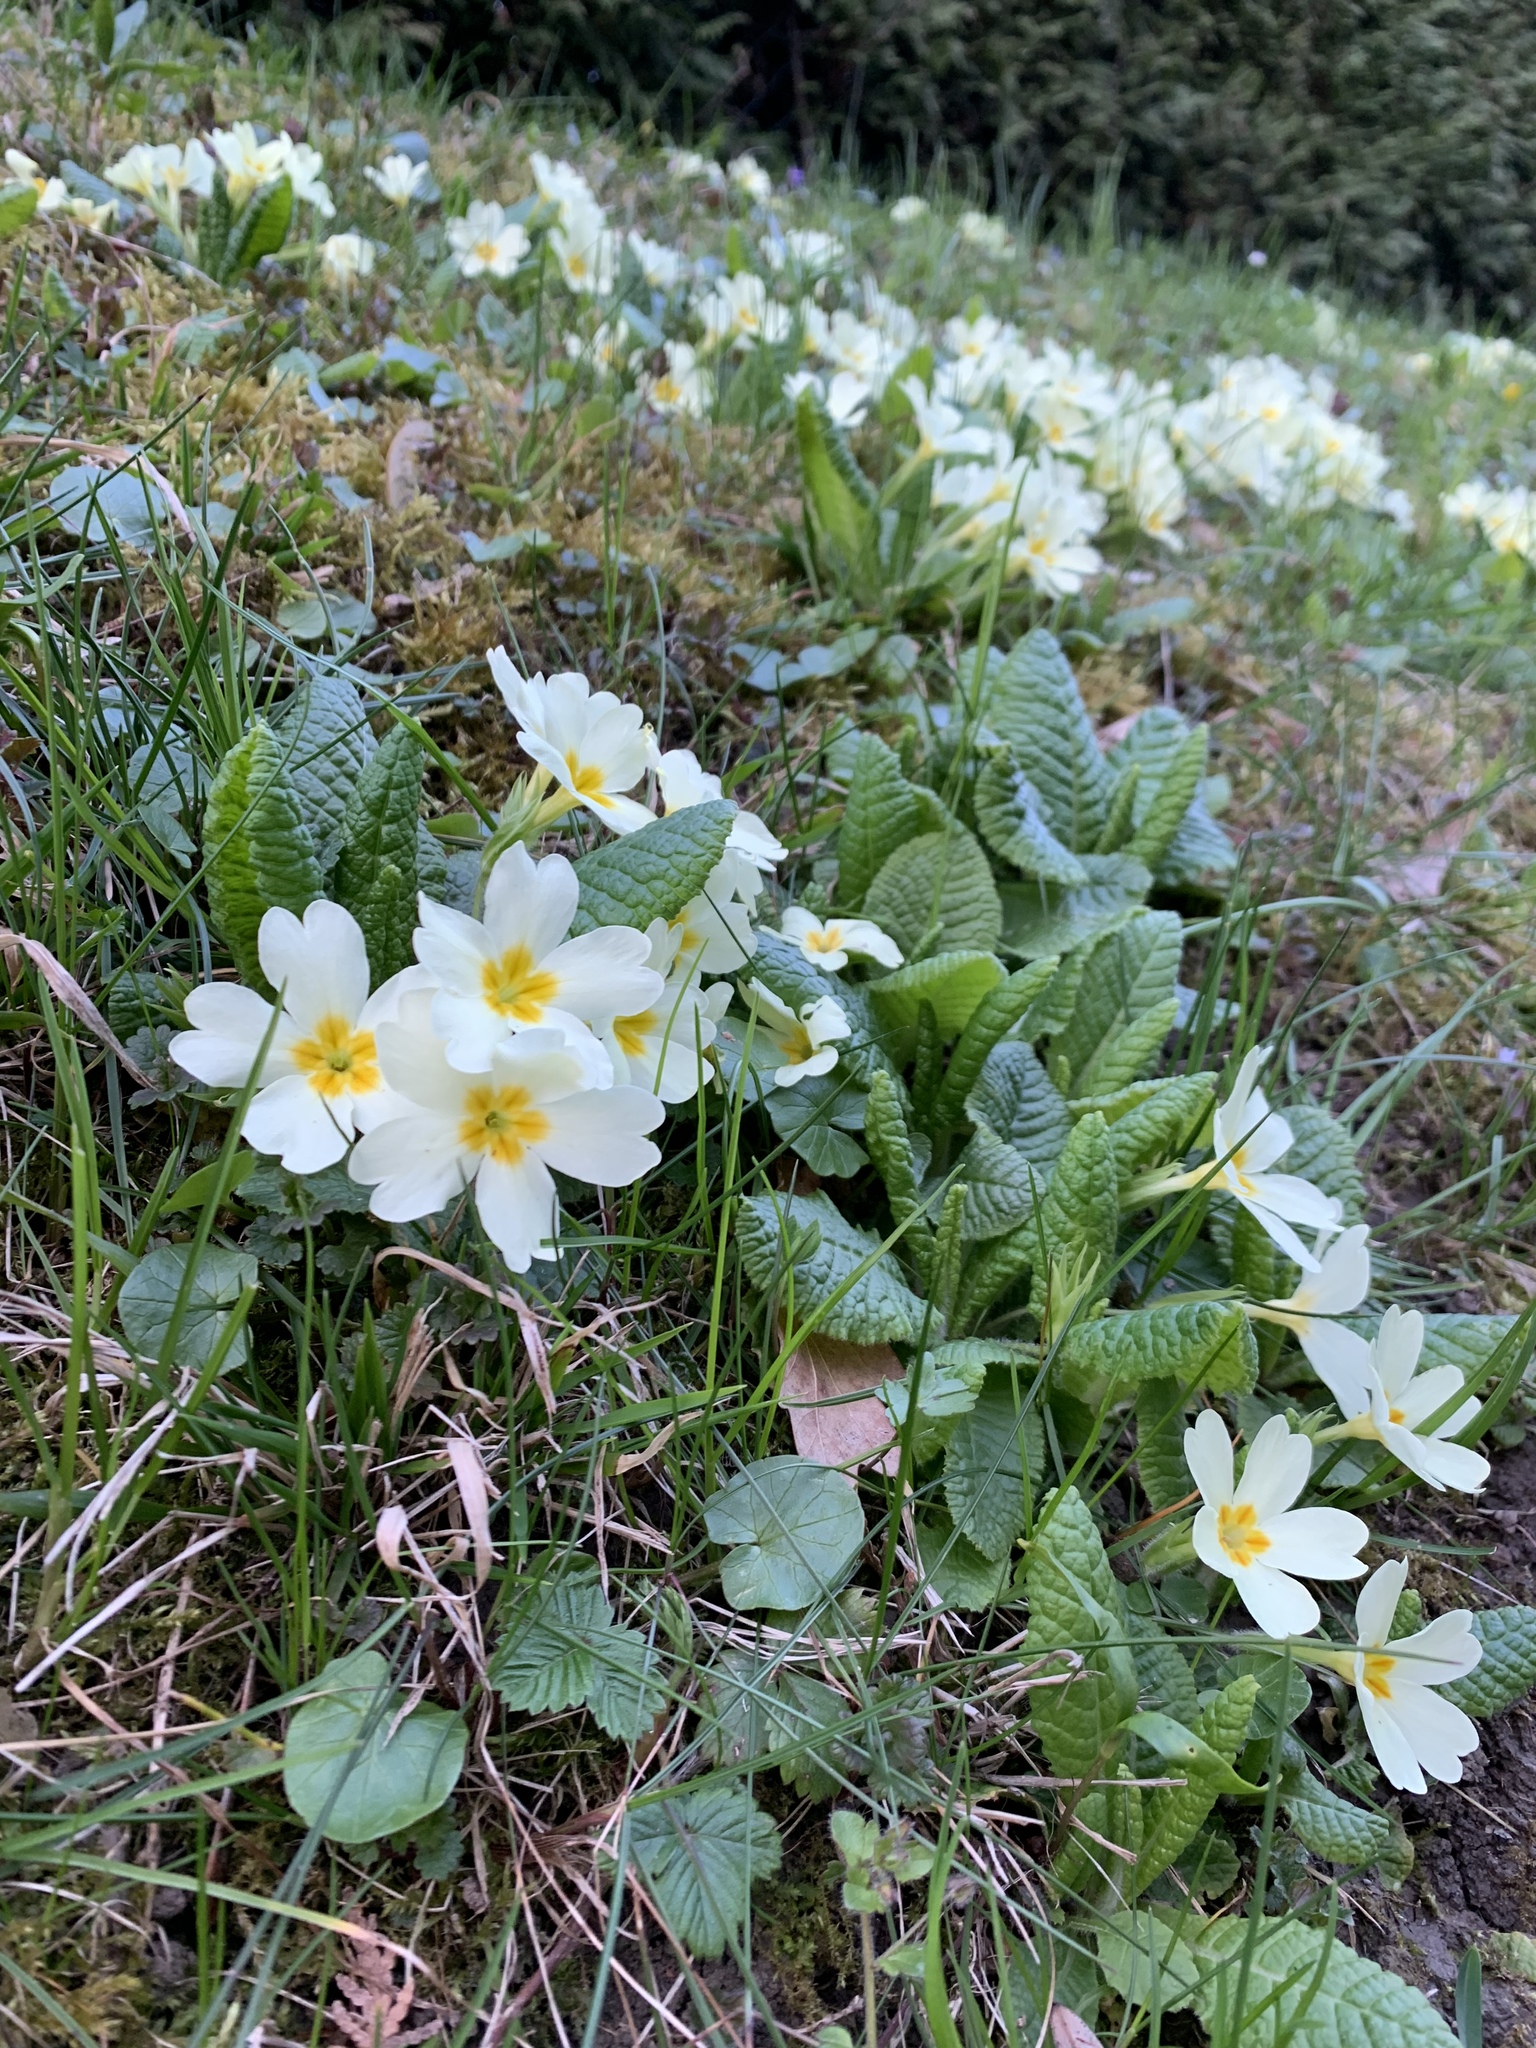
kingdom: Plantae
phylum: Tracheophyta
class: Magnoliopsida
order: Ericales
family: Primulaceae
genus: Primula
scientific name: Primula vulgaris
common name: Primrose
